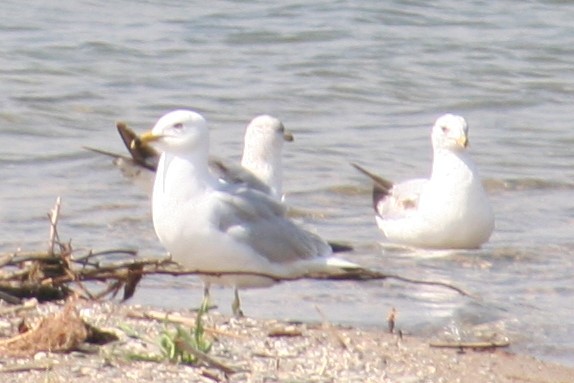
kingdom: Animalia
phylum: Chordata
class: Aves
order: Charadriiformes
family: Laridae
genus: Larus
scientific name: Larus delawarensis
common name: Ring-billed gull
